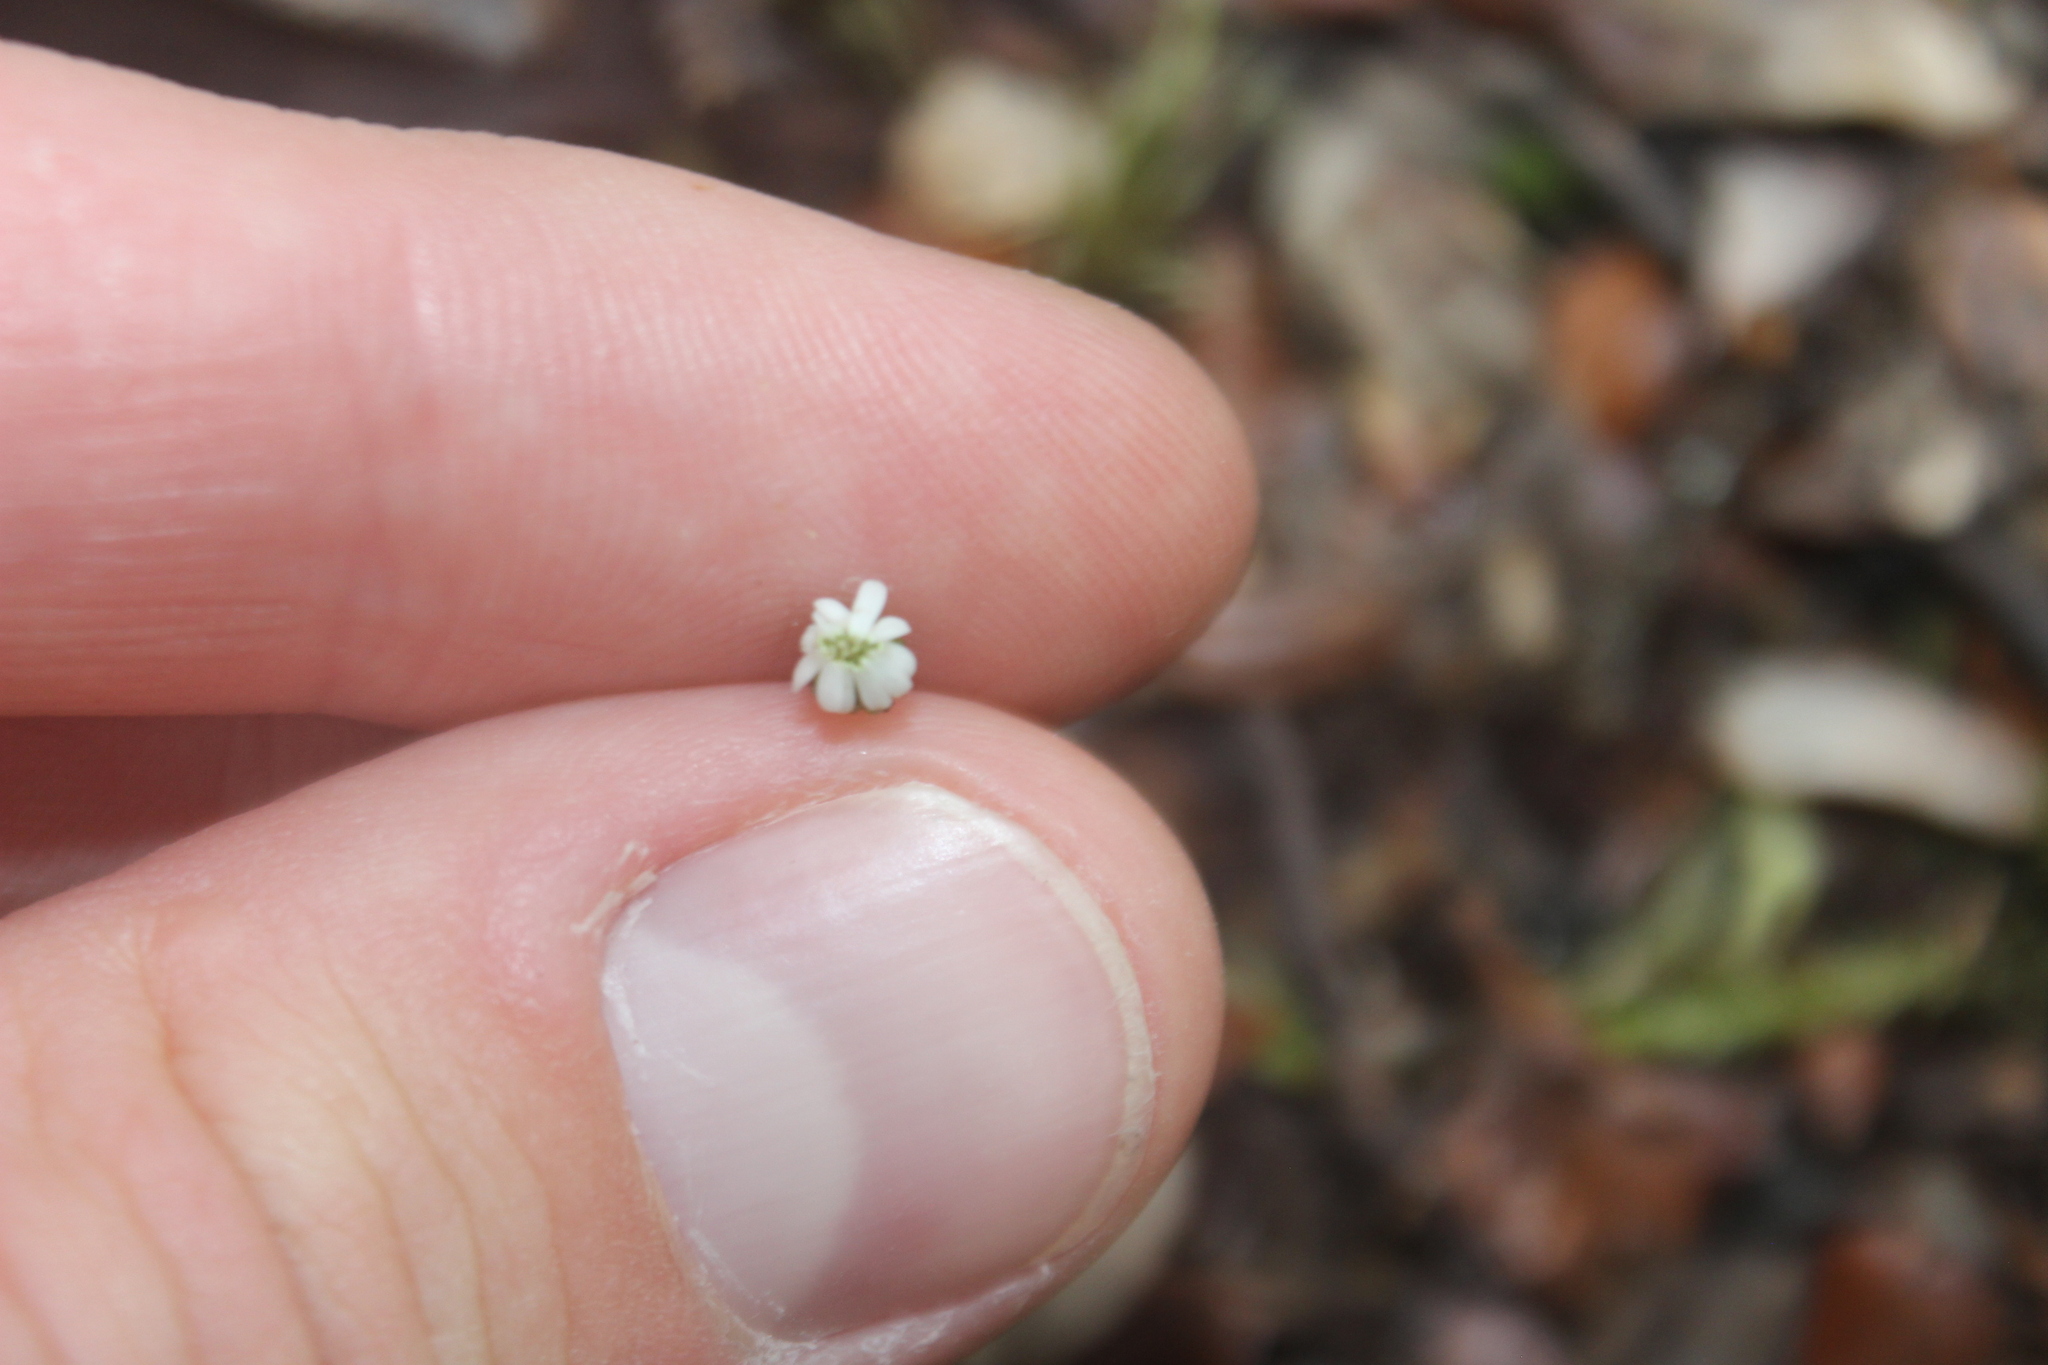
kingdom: Plantae
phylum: Tracheophyta
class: Magnoliopsida
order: Asterales
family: Asteraceae
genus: Lagenophora
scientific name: Lagenophora strangulata
